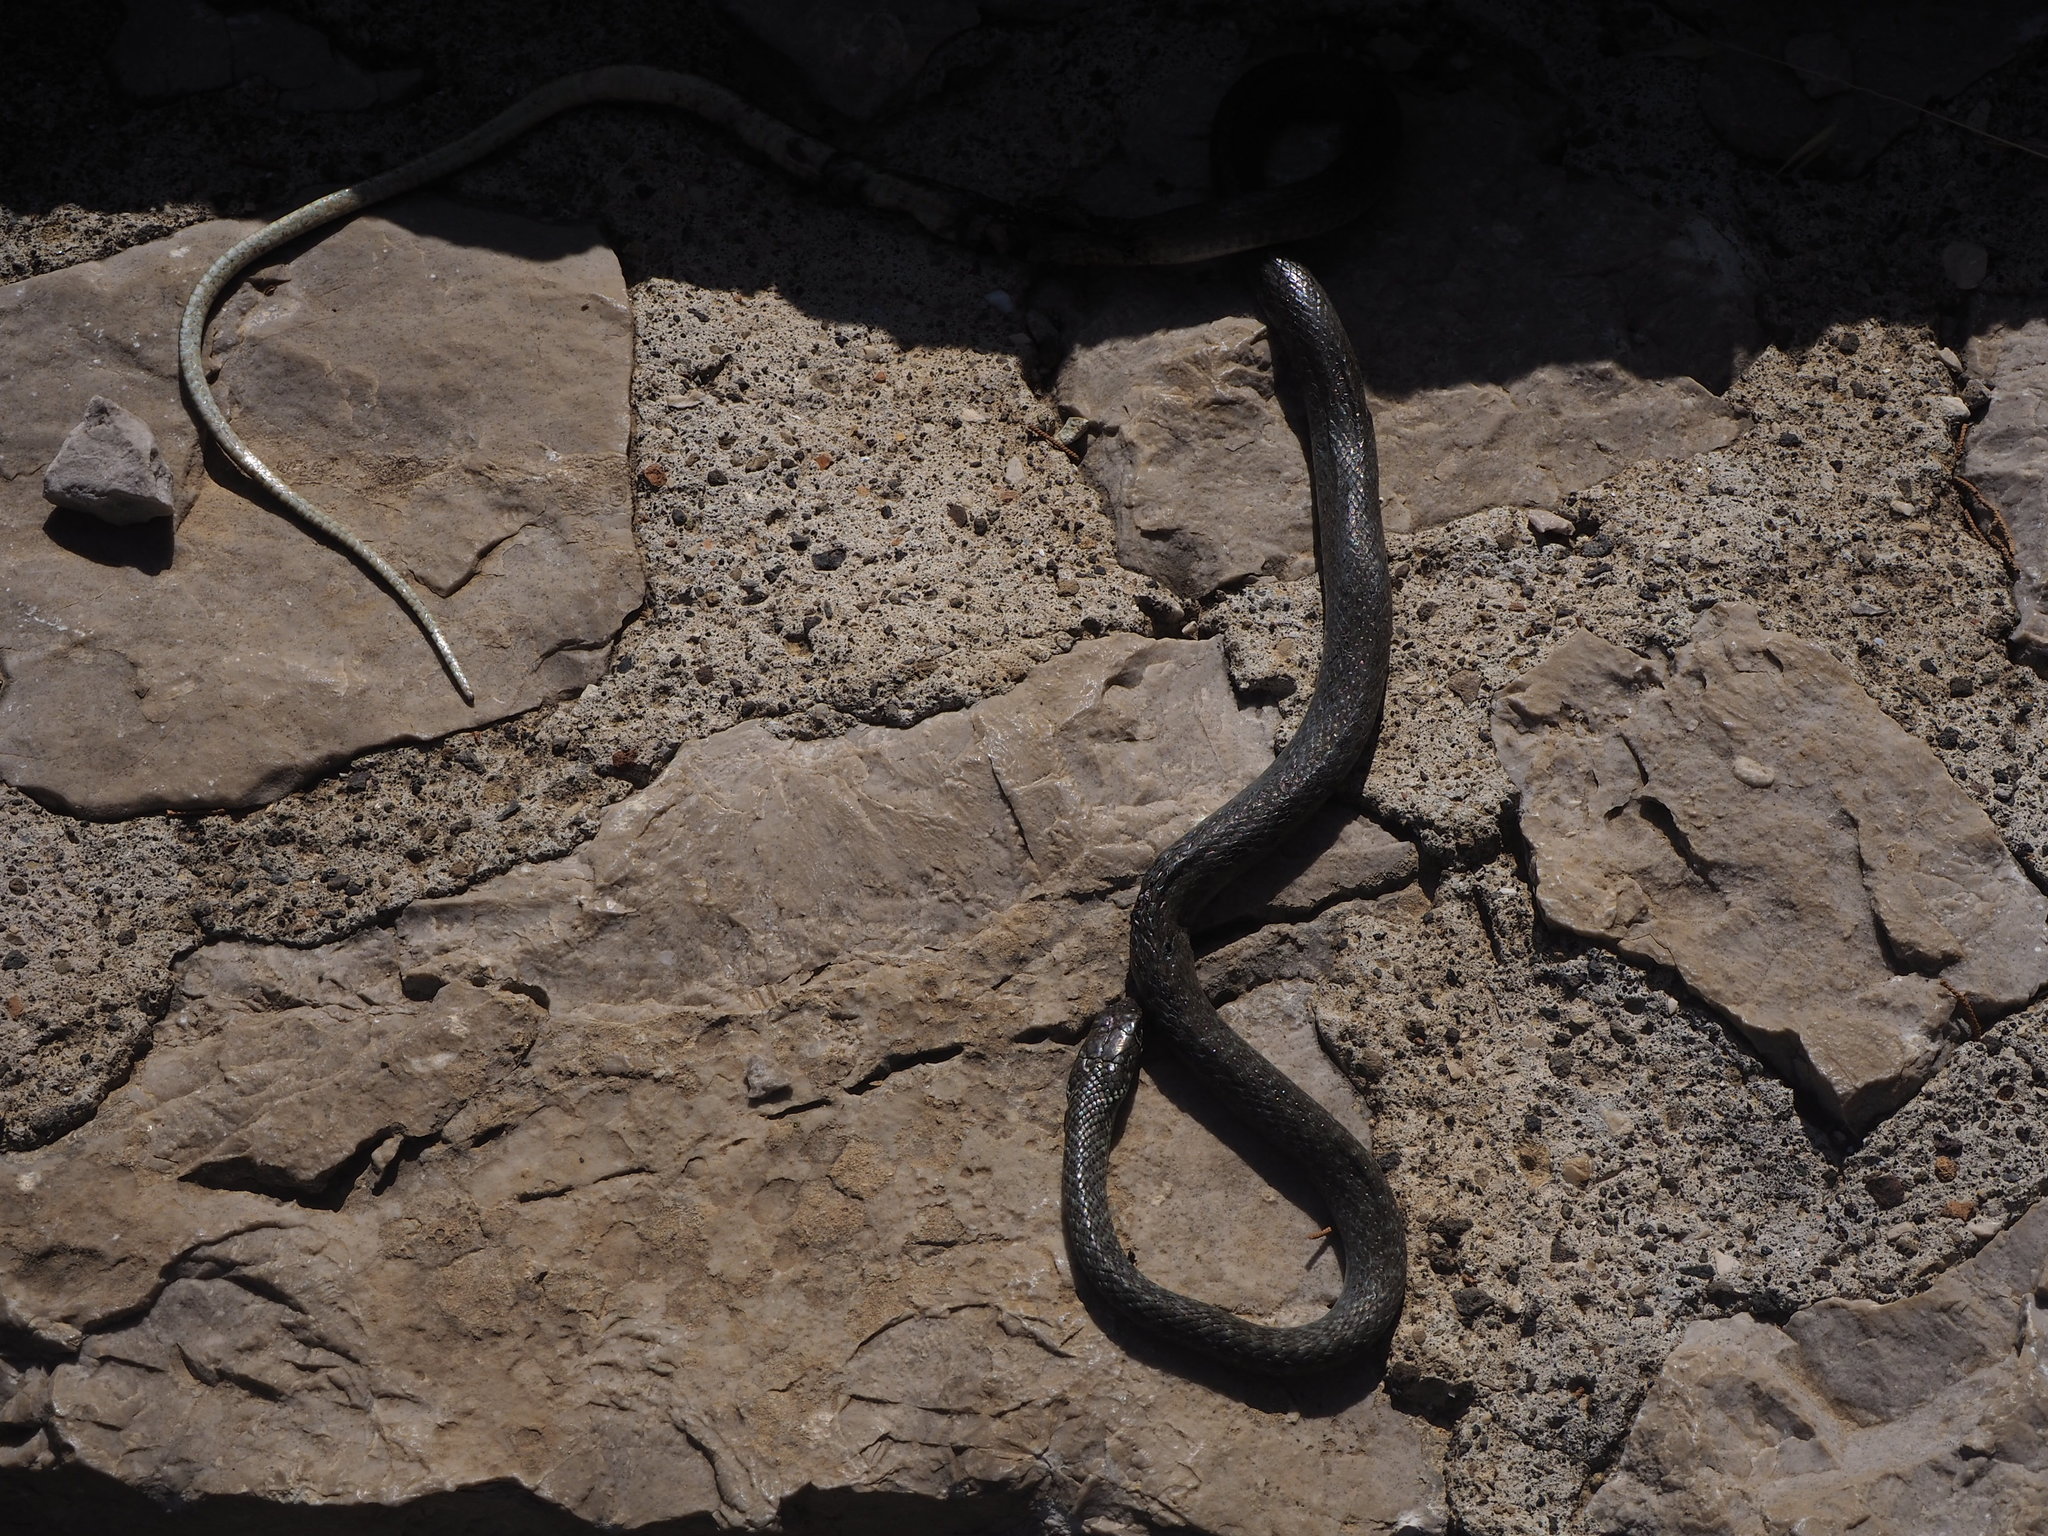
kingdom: Animalia
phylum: Chordata
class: Squamata
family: Colubridae
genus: Hierophis
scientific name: Hierophis viridiflavus
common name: Green whip snake
